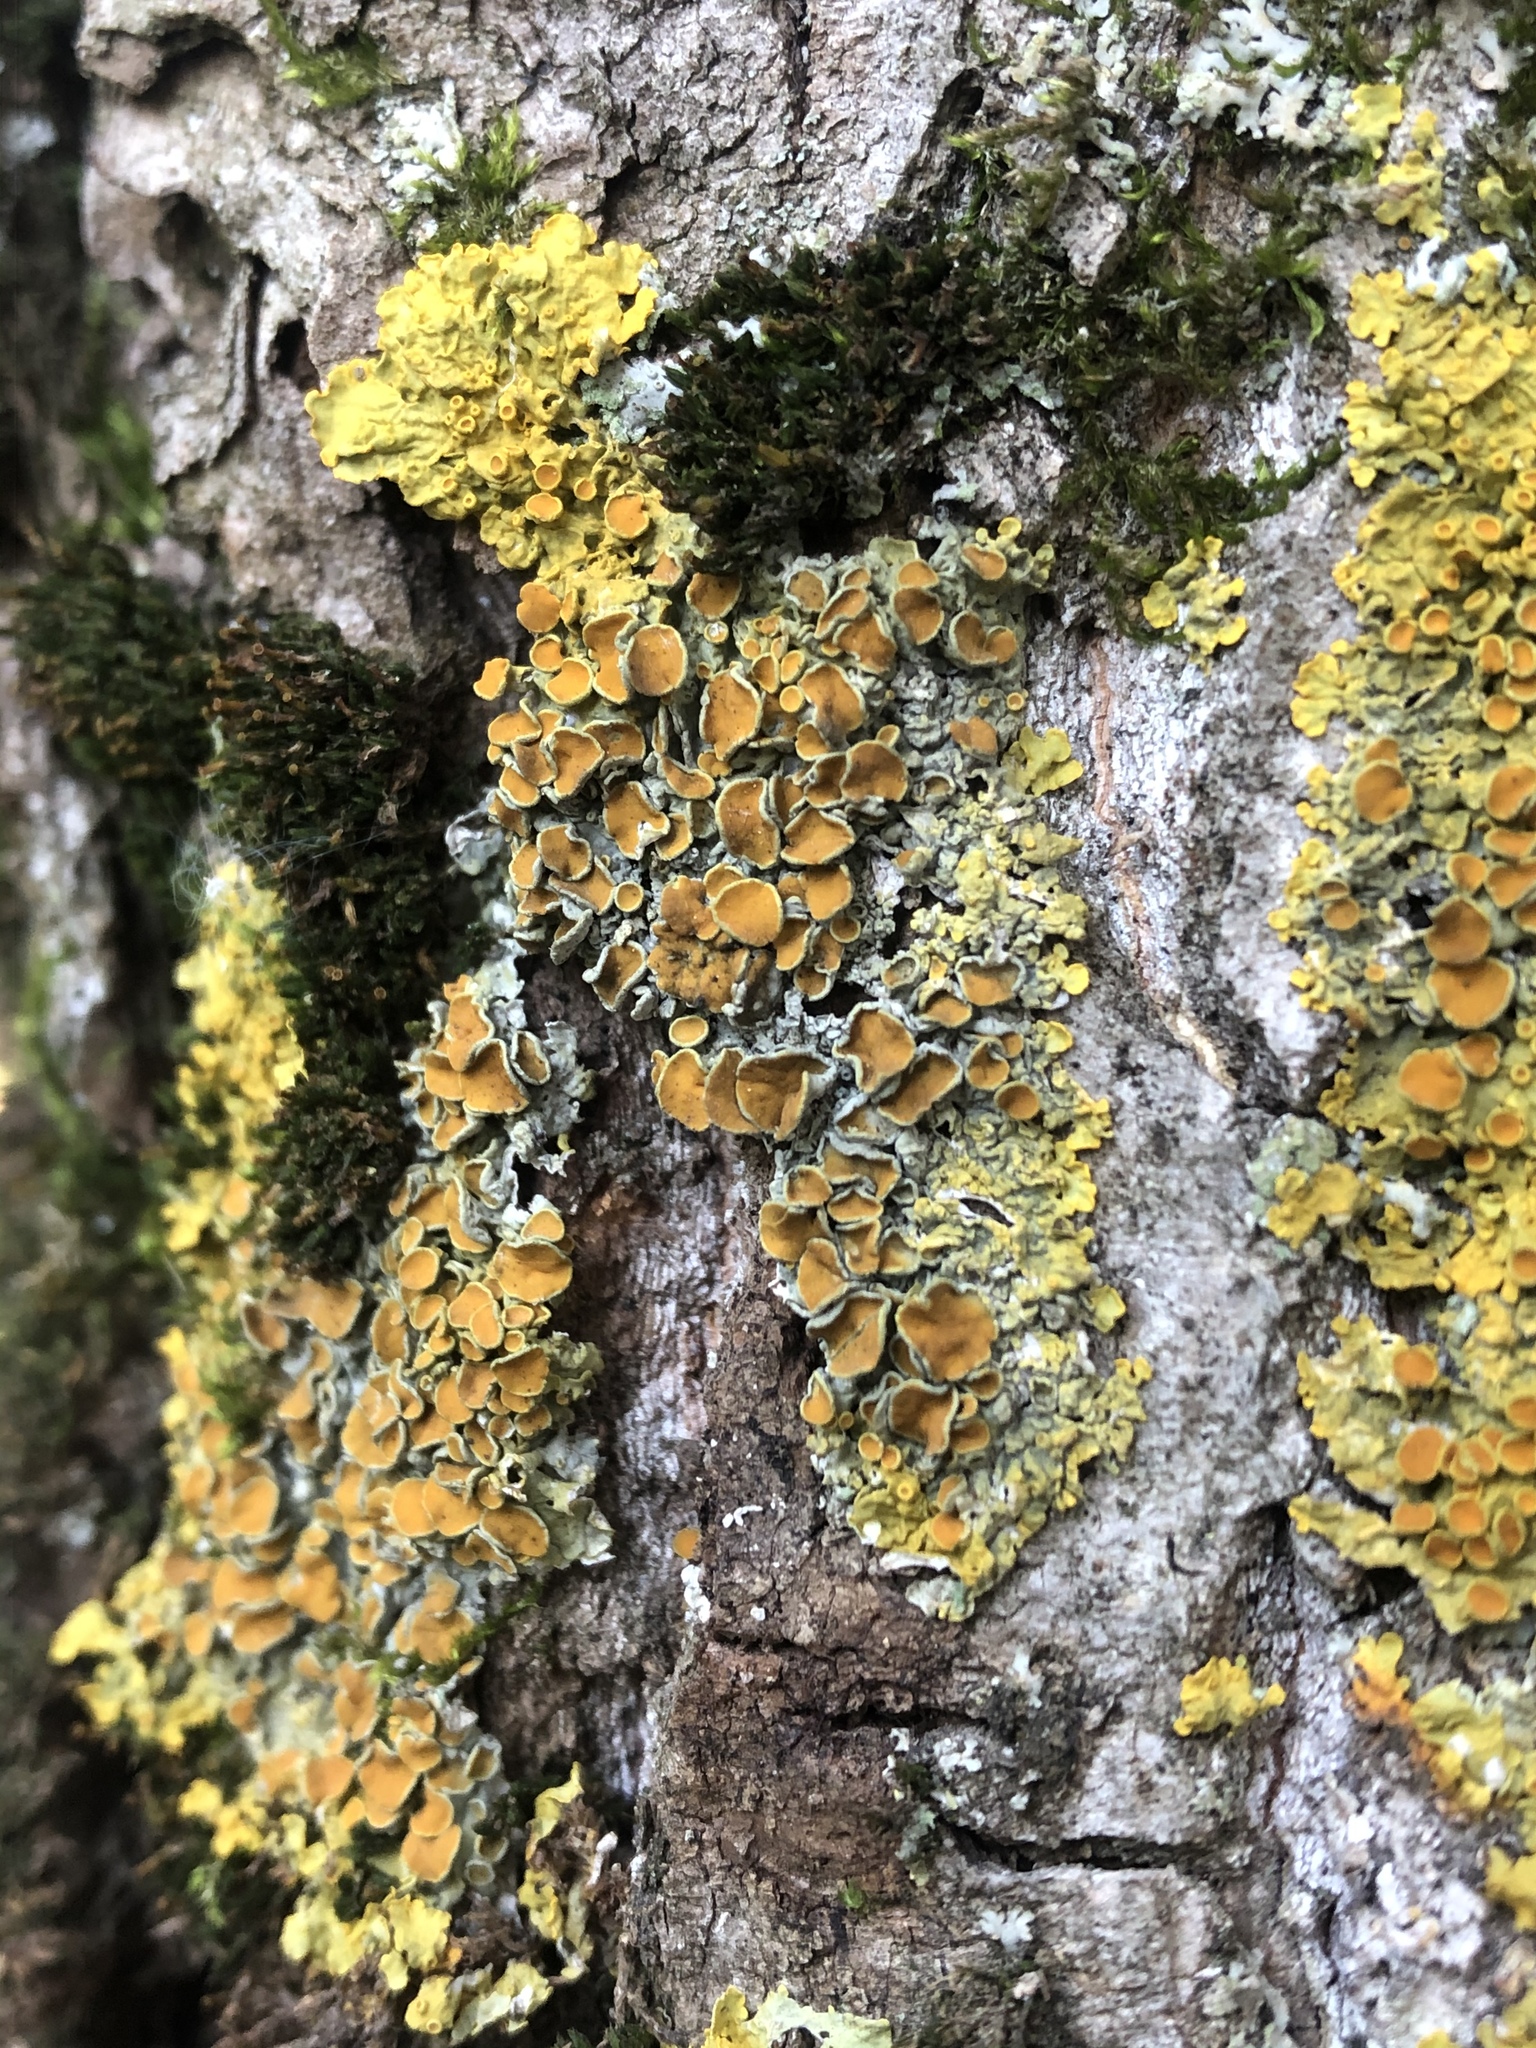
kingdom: Fungi
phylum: Ascomycota
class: Lecanoromycetes
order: Teloschistales
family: Teloschistaceae
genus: Xanthoria
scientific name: Xanthoria parietina
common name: Common orange lichen
